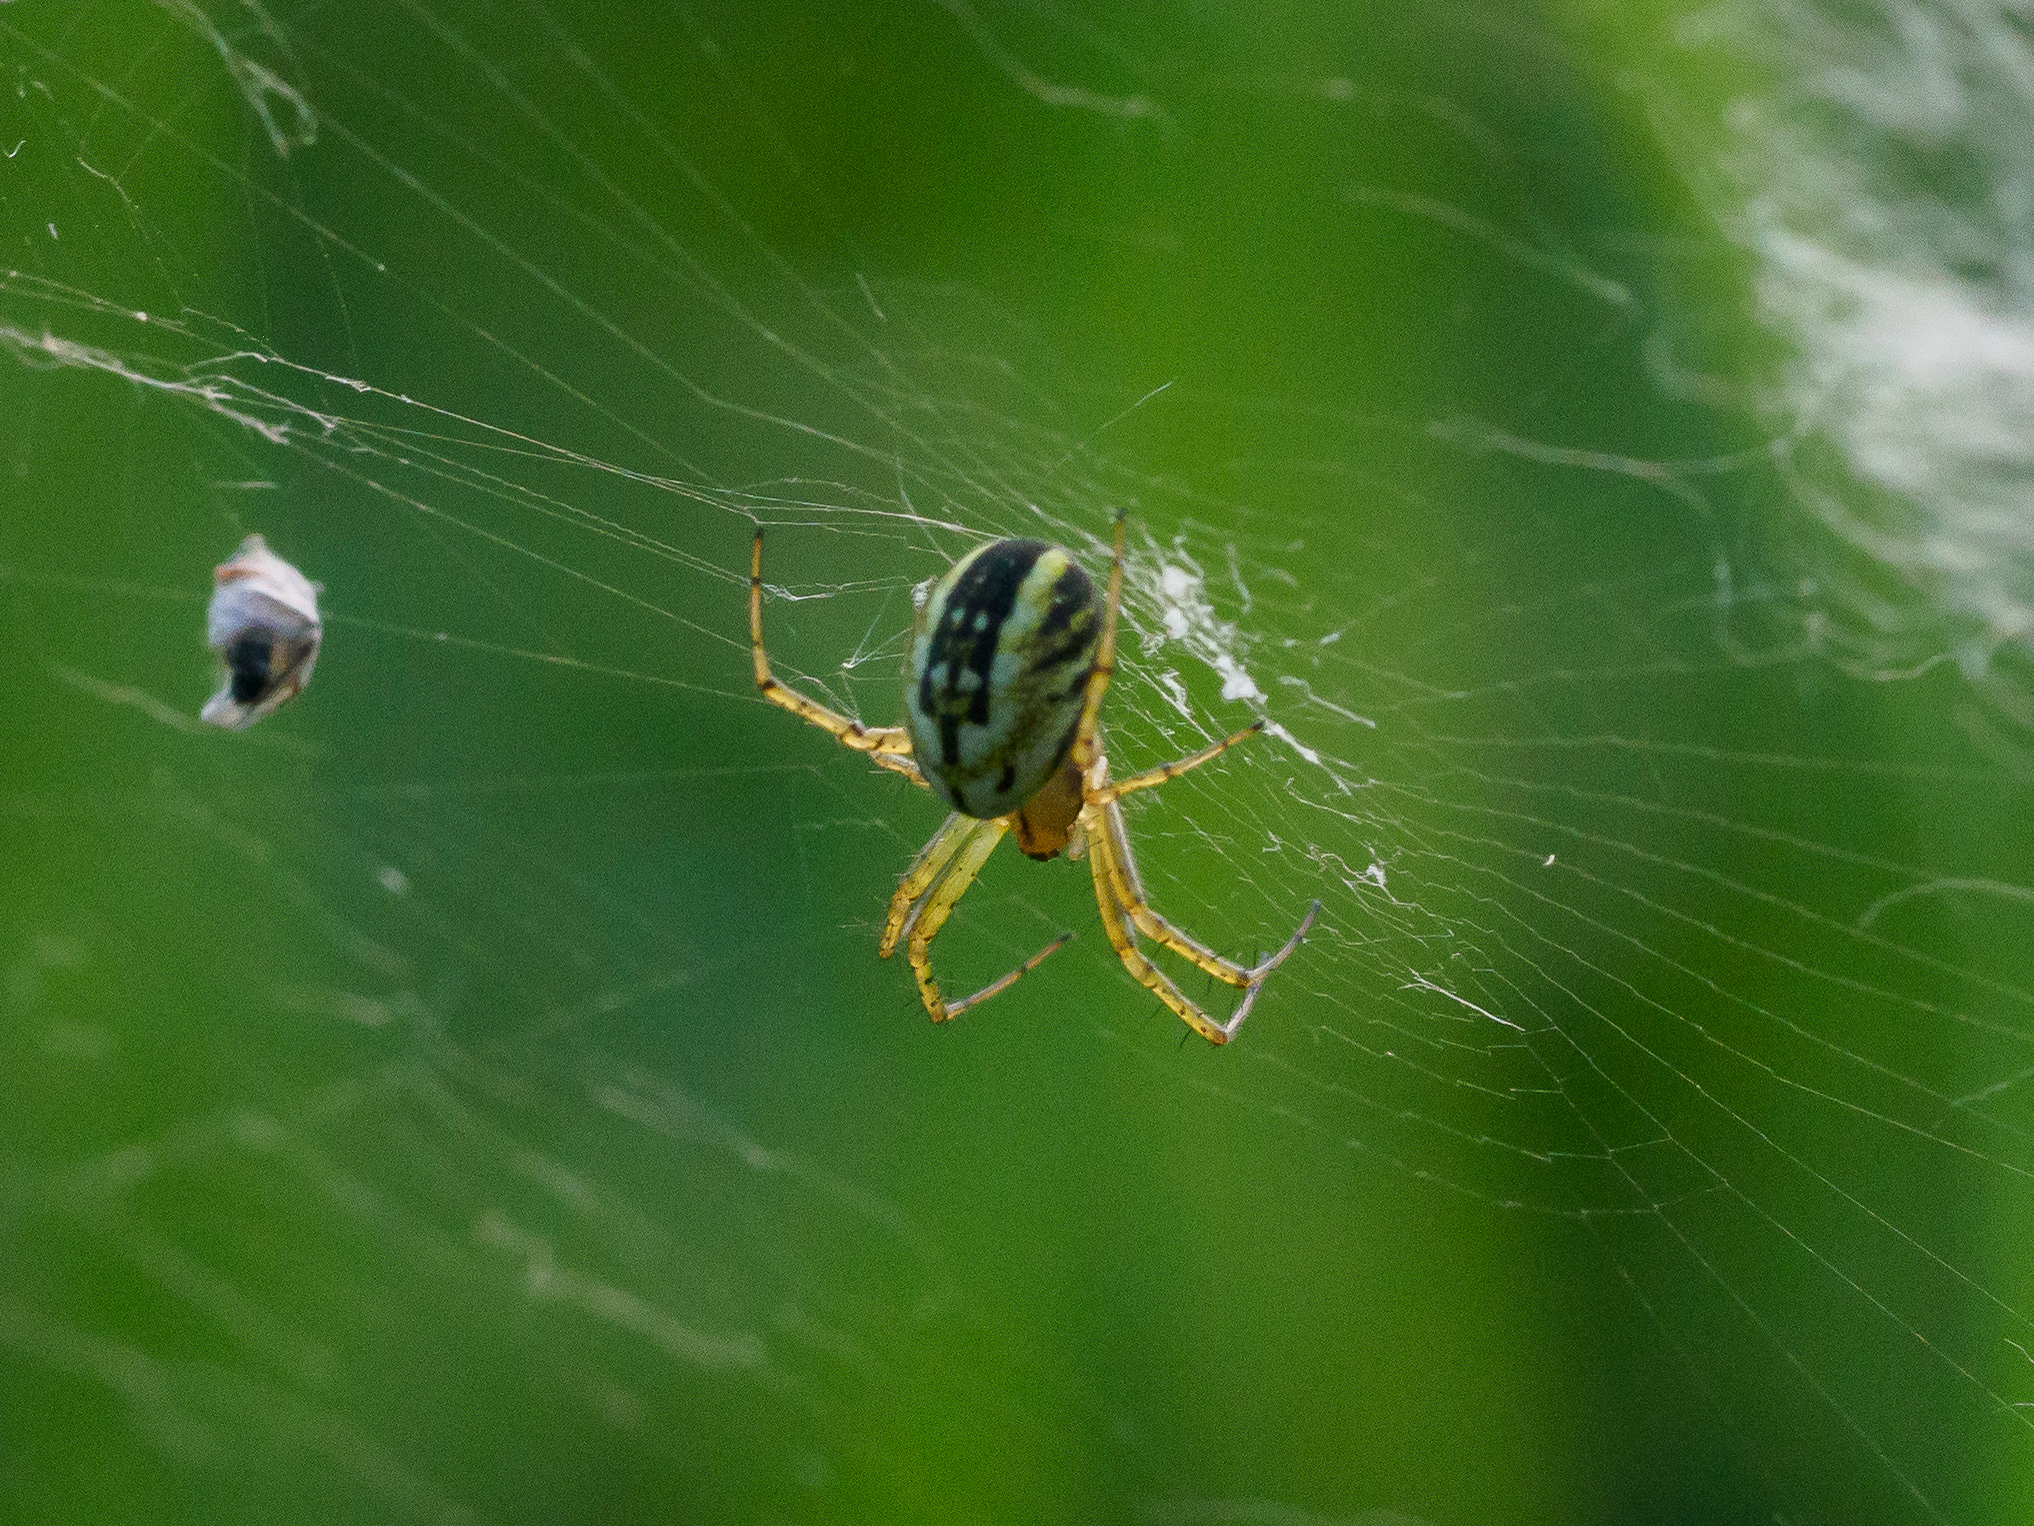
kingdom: Animalia
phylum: Arthropoda
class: Arachnida
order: Araneae
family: Araneidae
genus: Mangora
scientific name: Mangora acalypha
